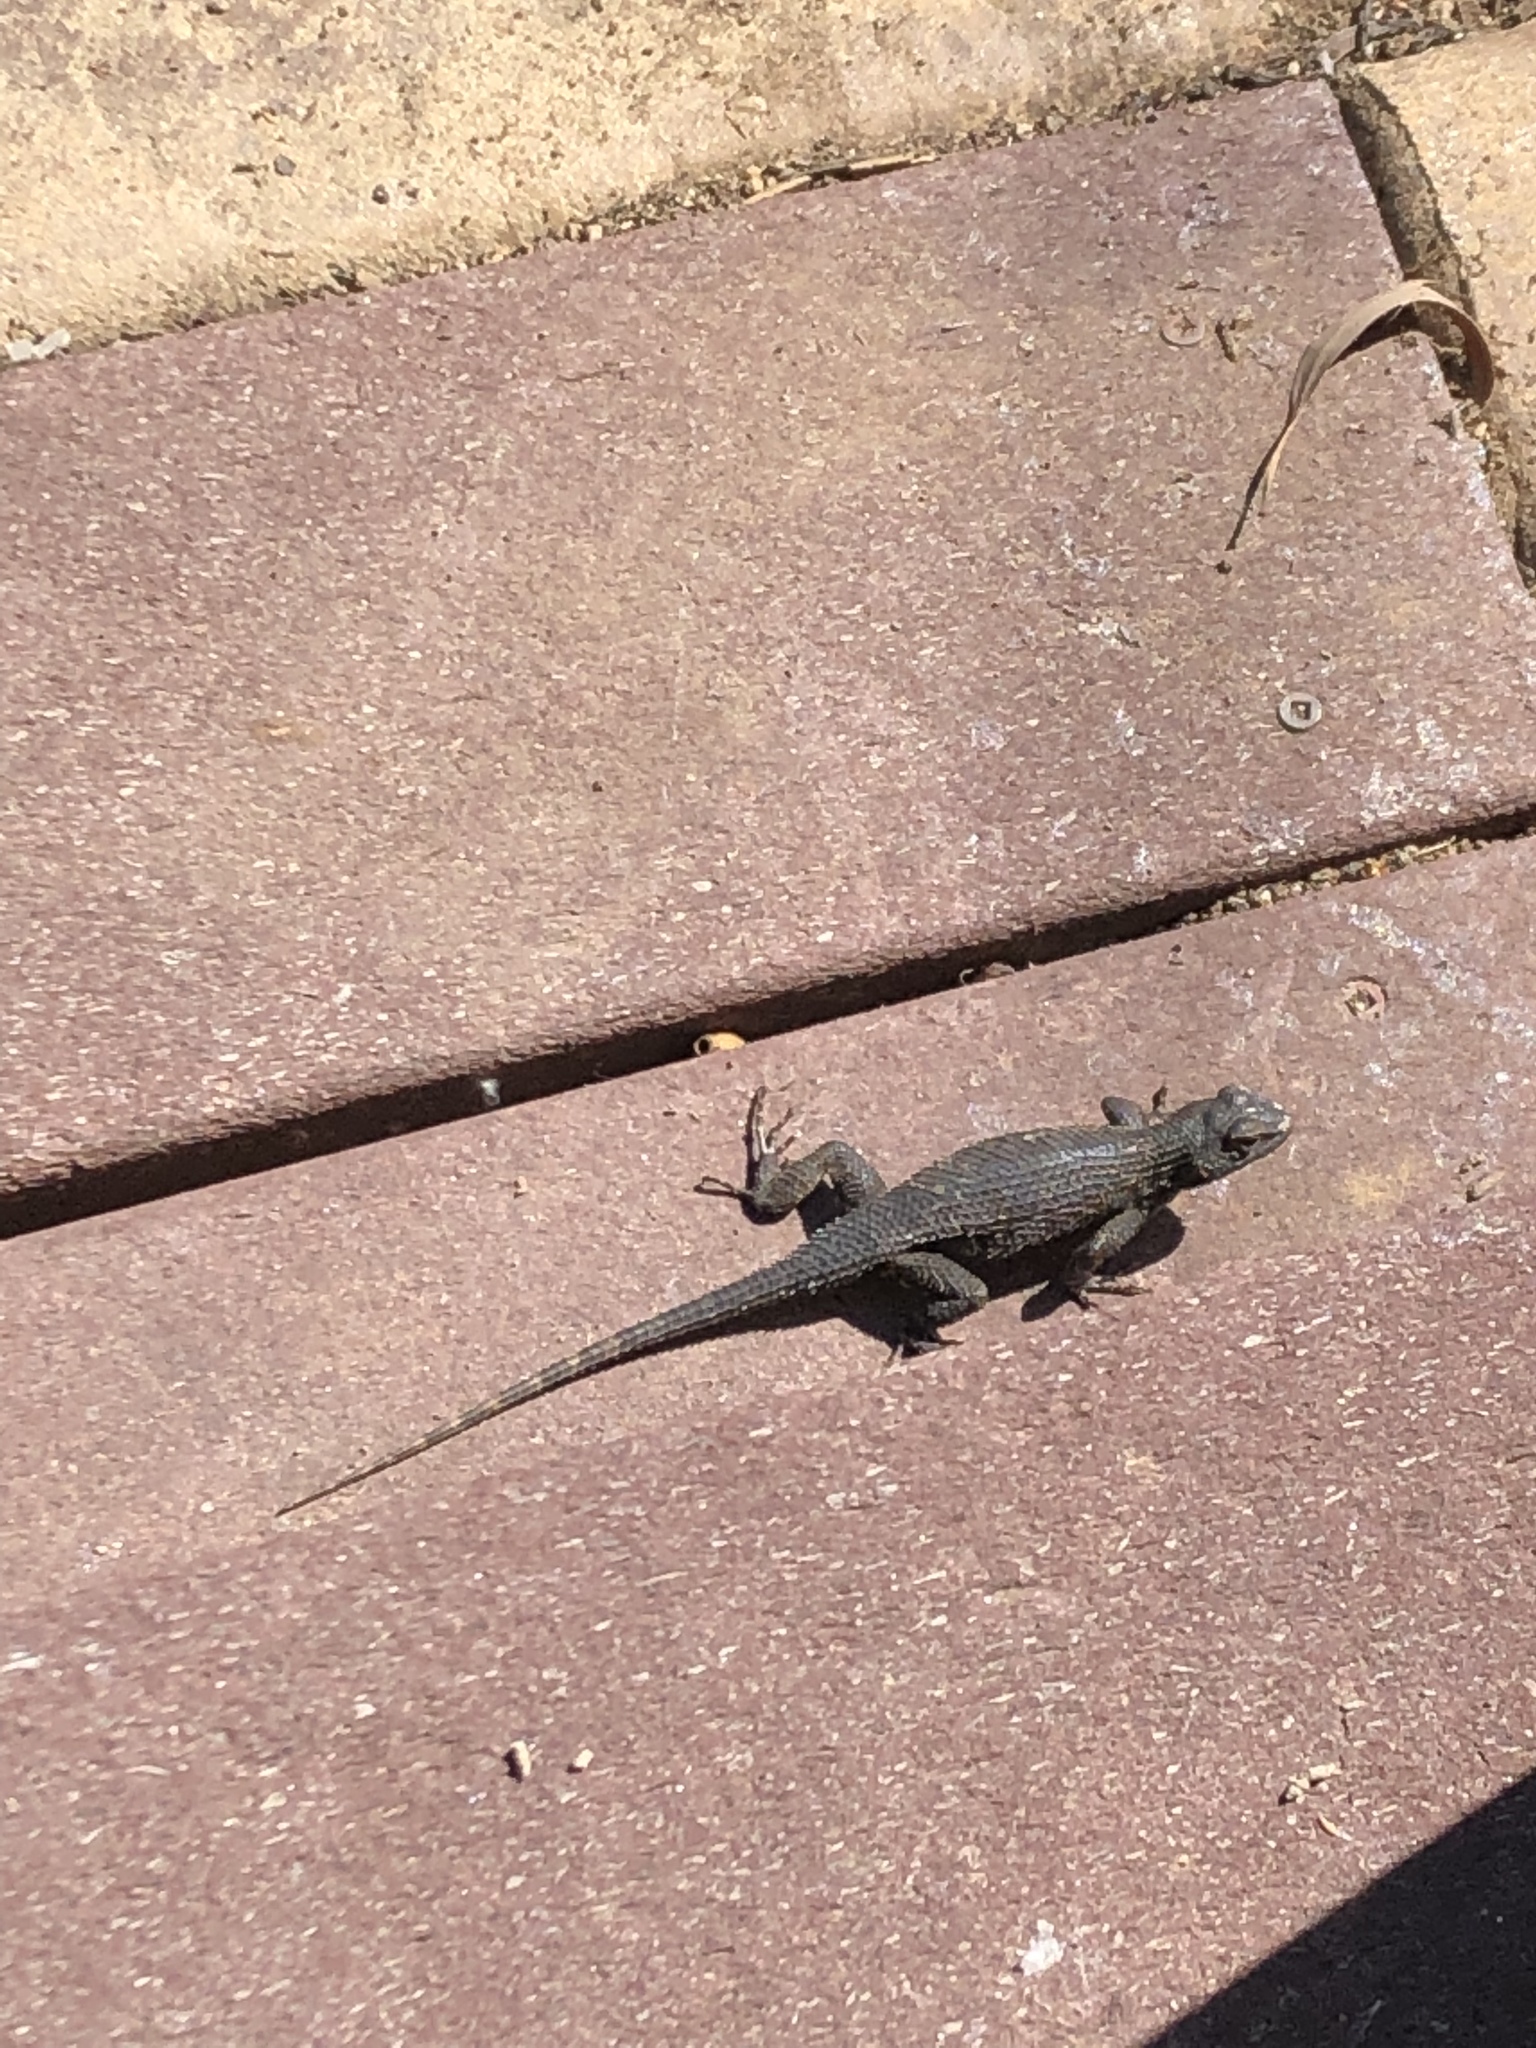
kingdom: Animalia
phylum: Chordata
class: Squamata
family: Phrynosomatidae
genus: Sceloporus
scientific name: Sceloporus occidentalis
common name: Western fence lizard
